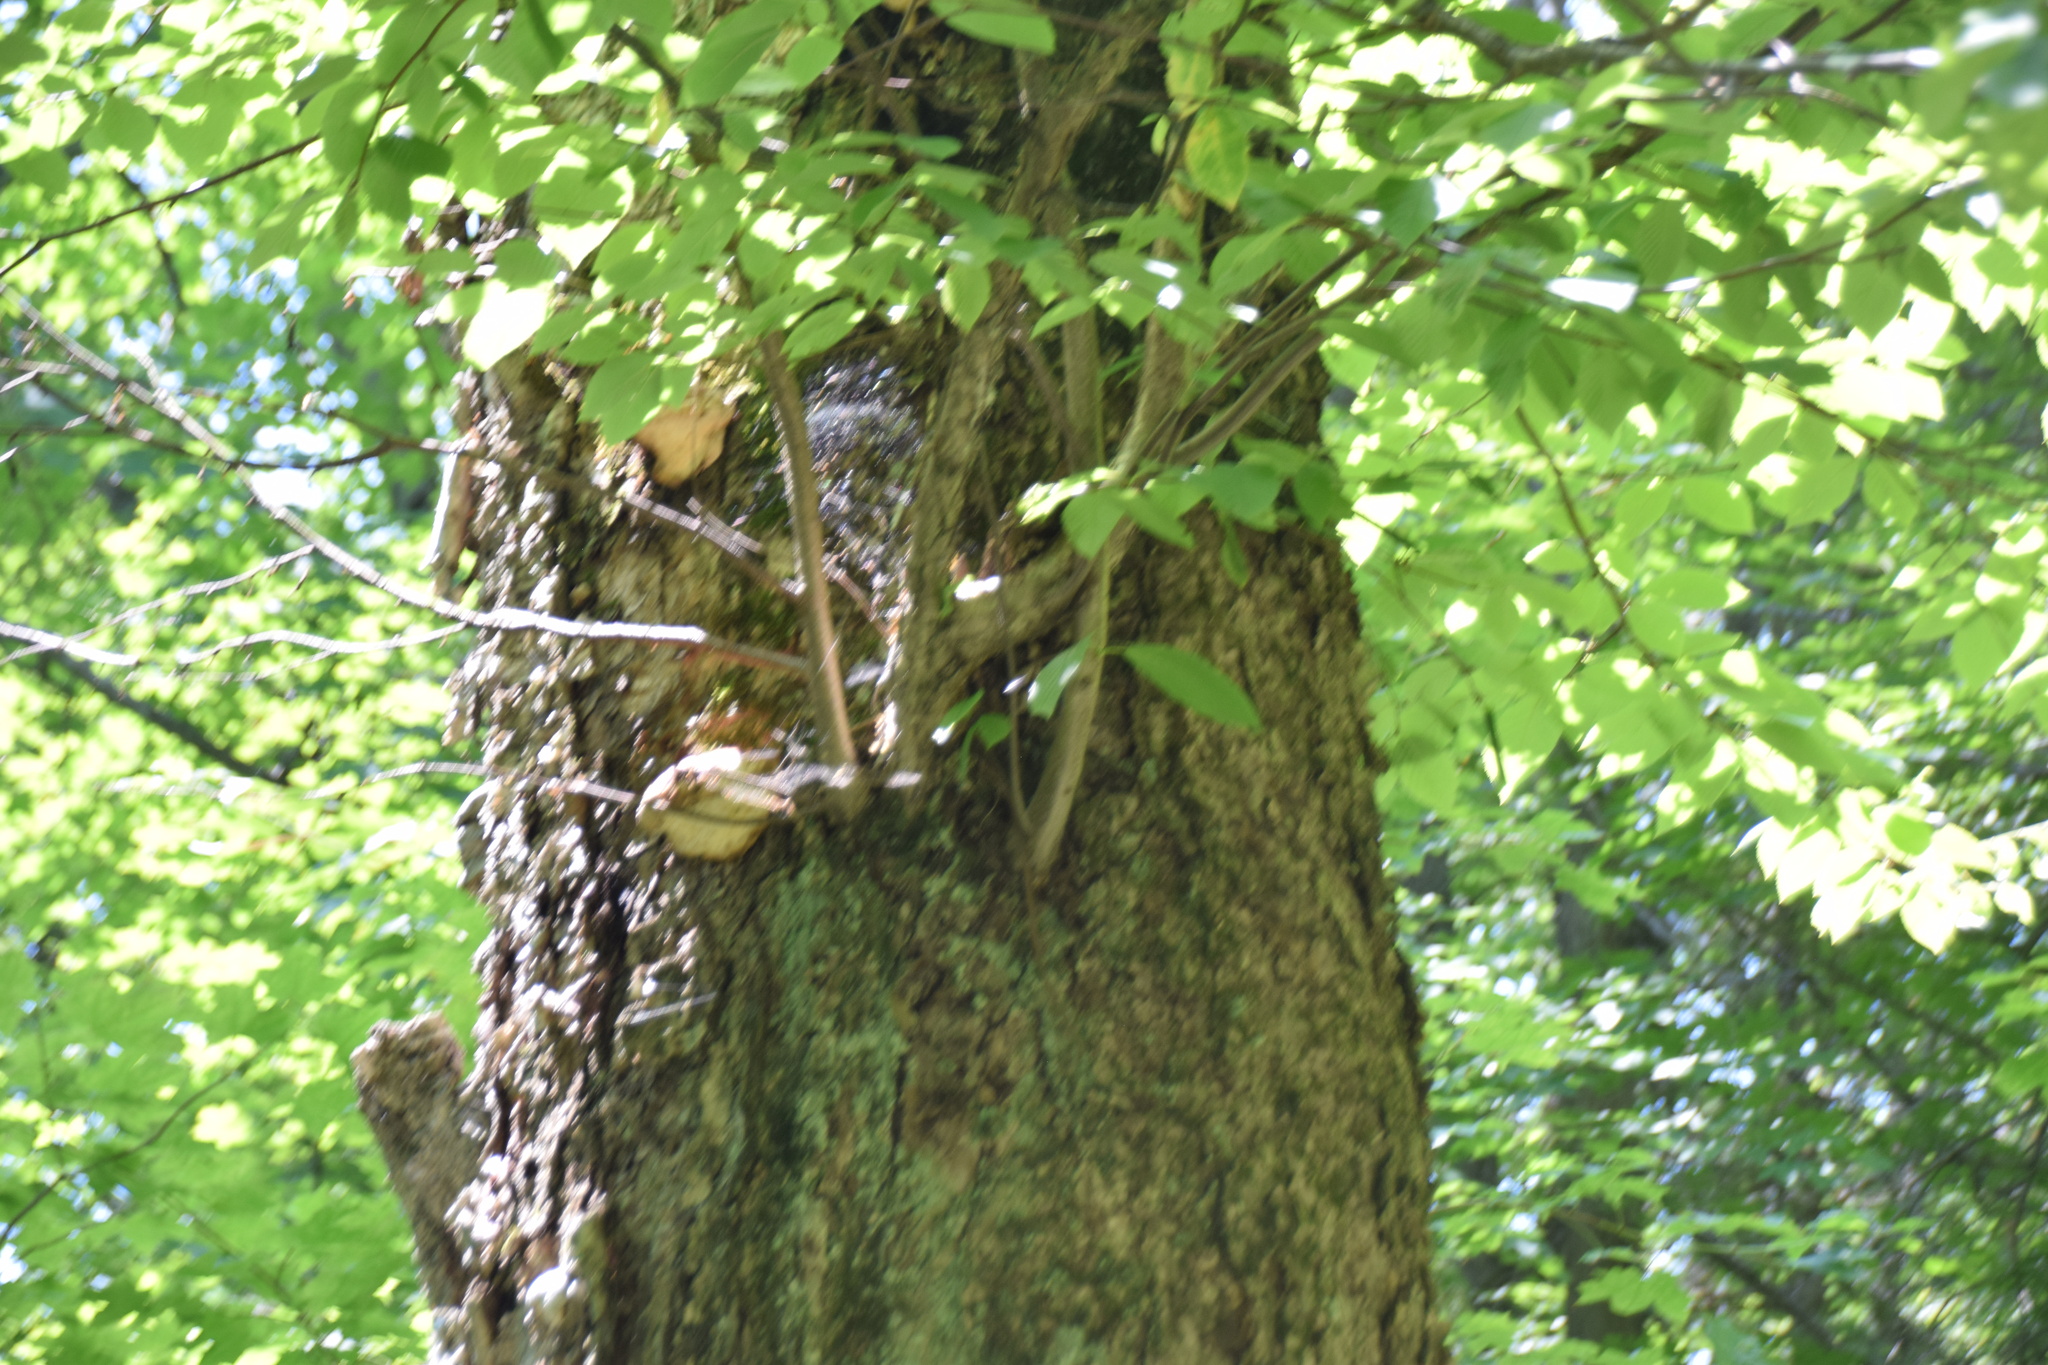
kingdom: Plantae
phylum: Tracheophyta
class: Magnoliopsida
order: Fagales
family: Betulaceae
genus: Betula
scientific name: Betula alleghaniensis
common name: Yellow birch
